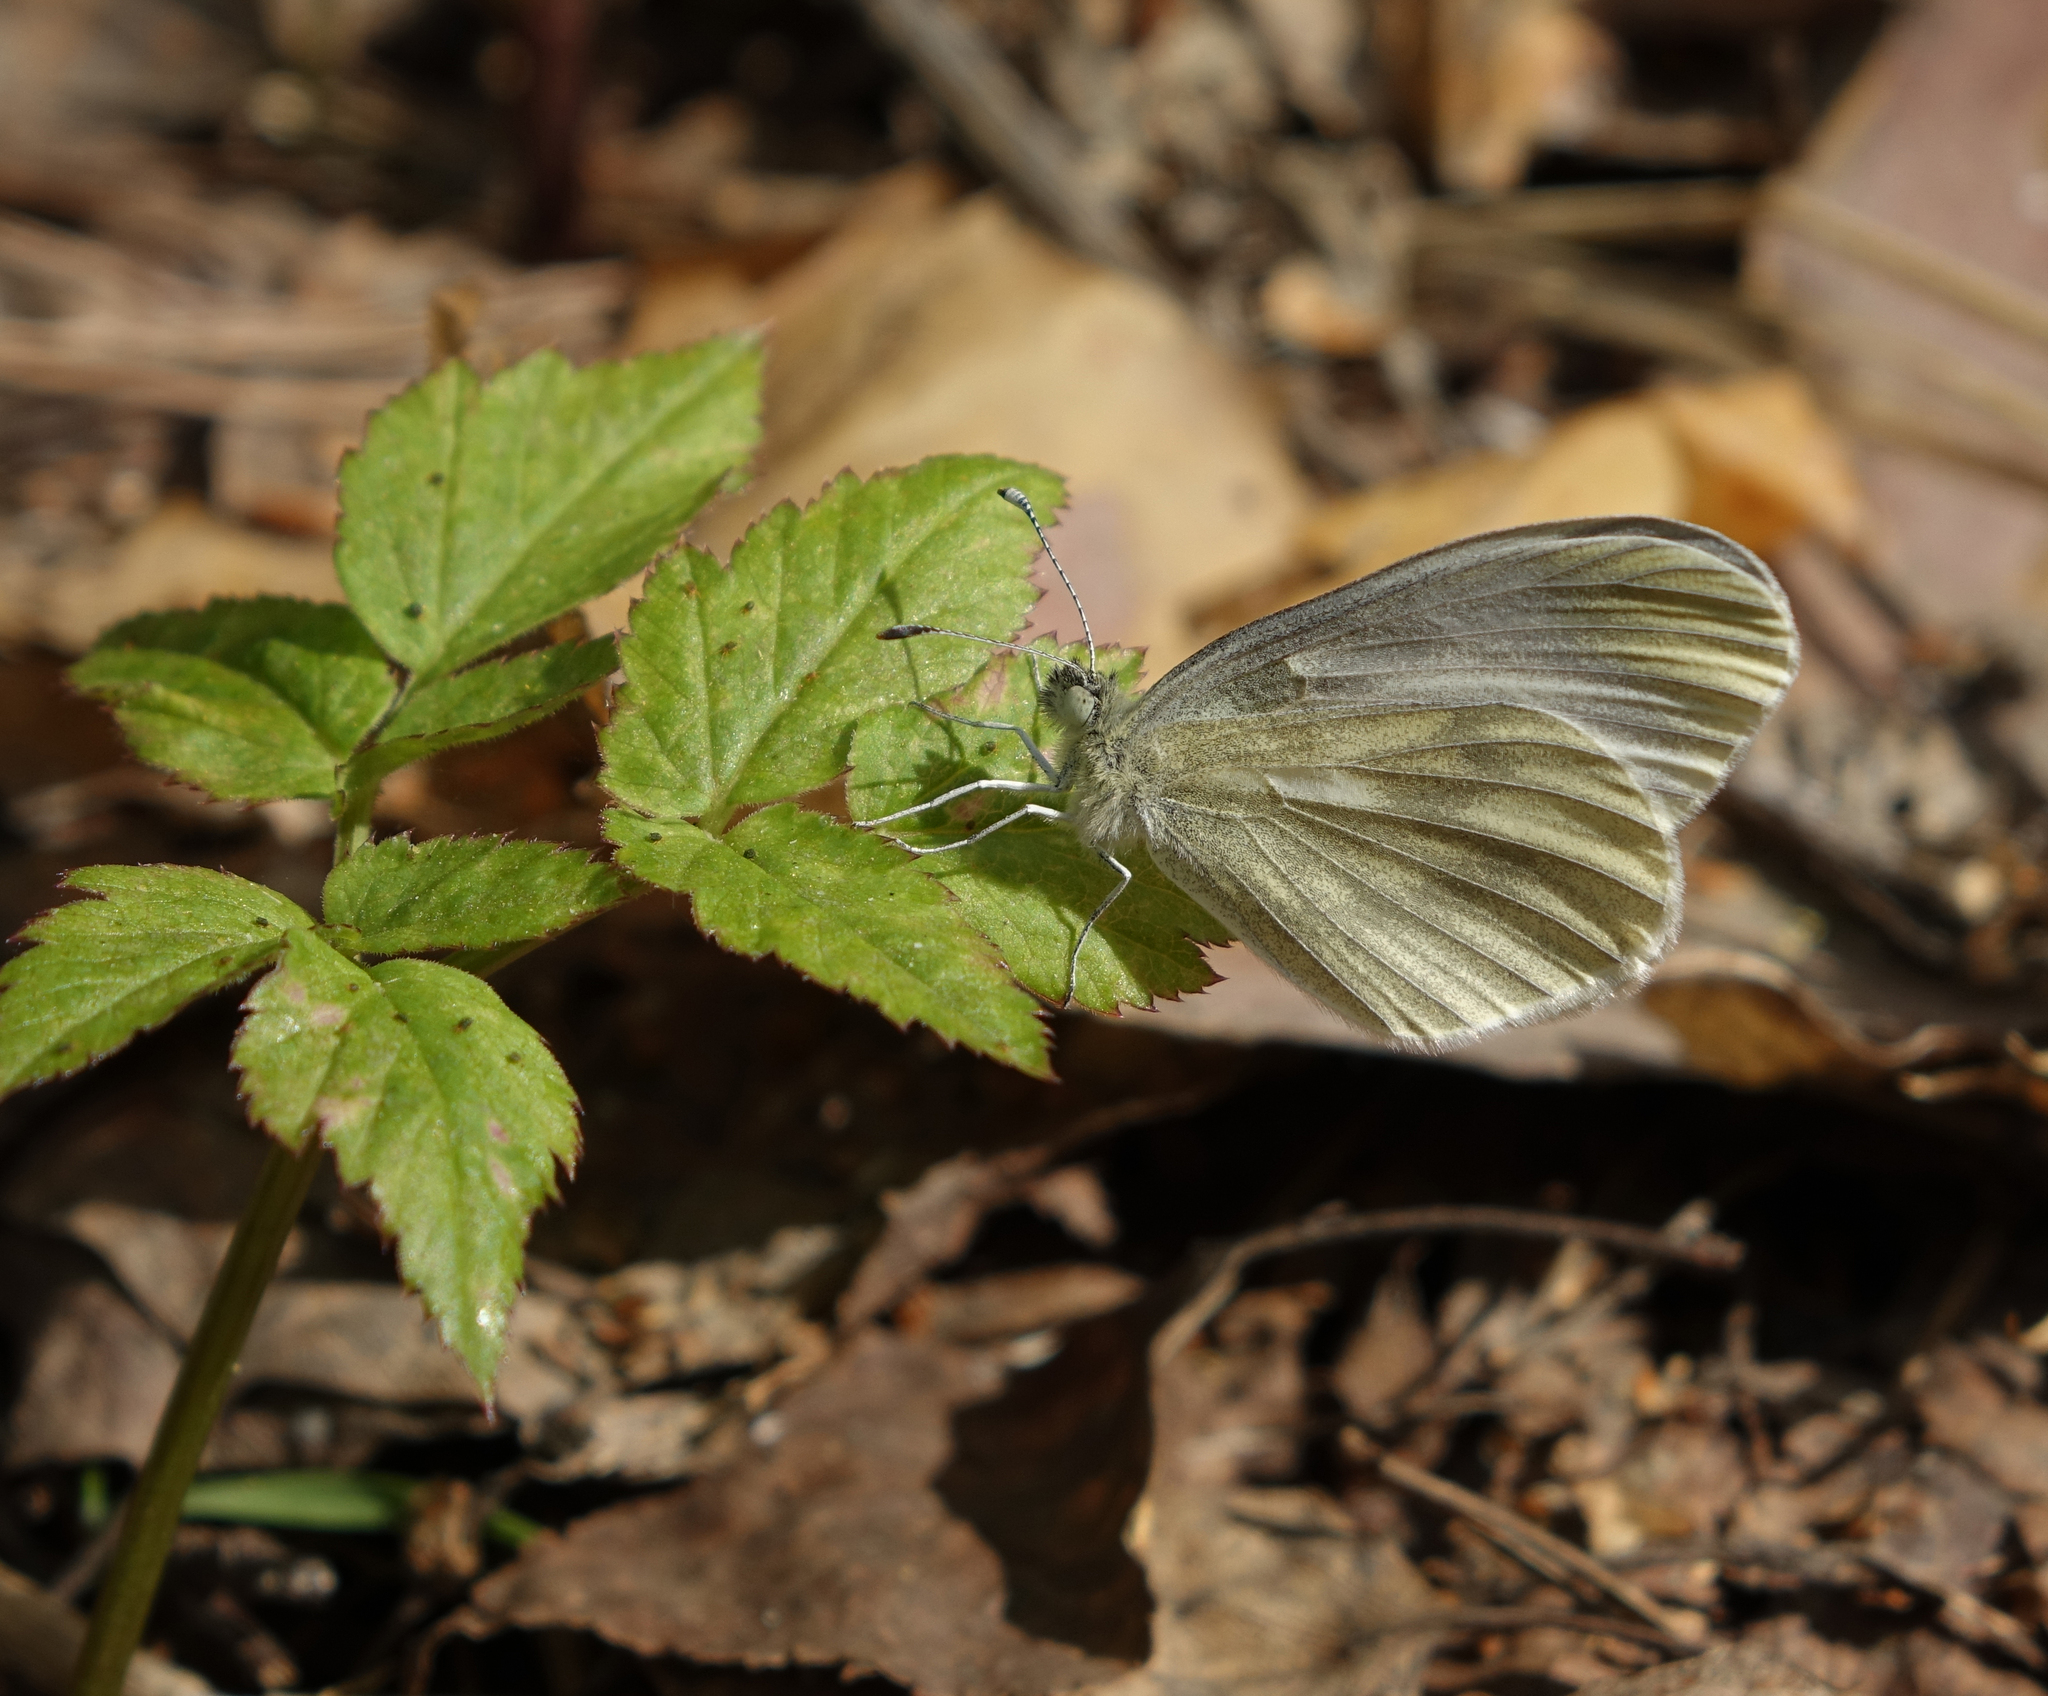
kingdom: Animalia
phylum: Arthropoda
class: Insecta
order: Lepidoptera
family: Pieridae
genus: Leptidea
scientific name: Leptidea morsei
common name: Fenton's wood white
